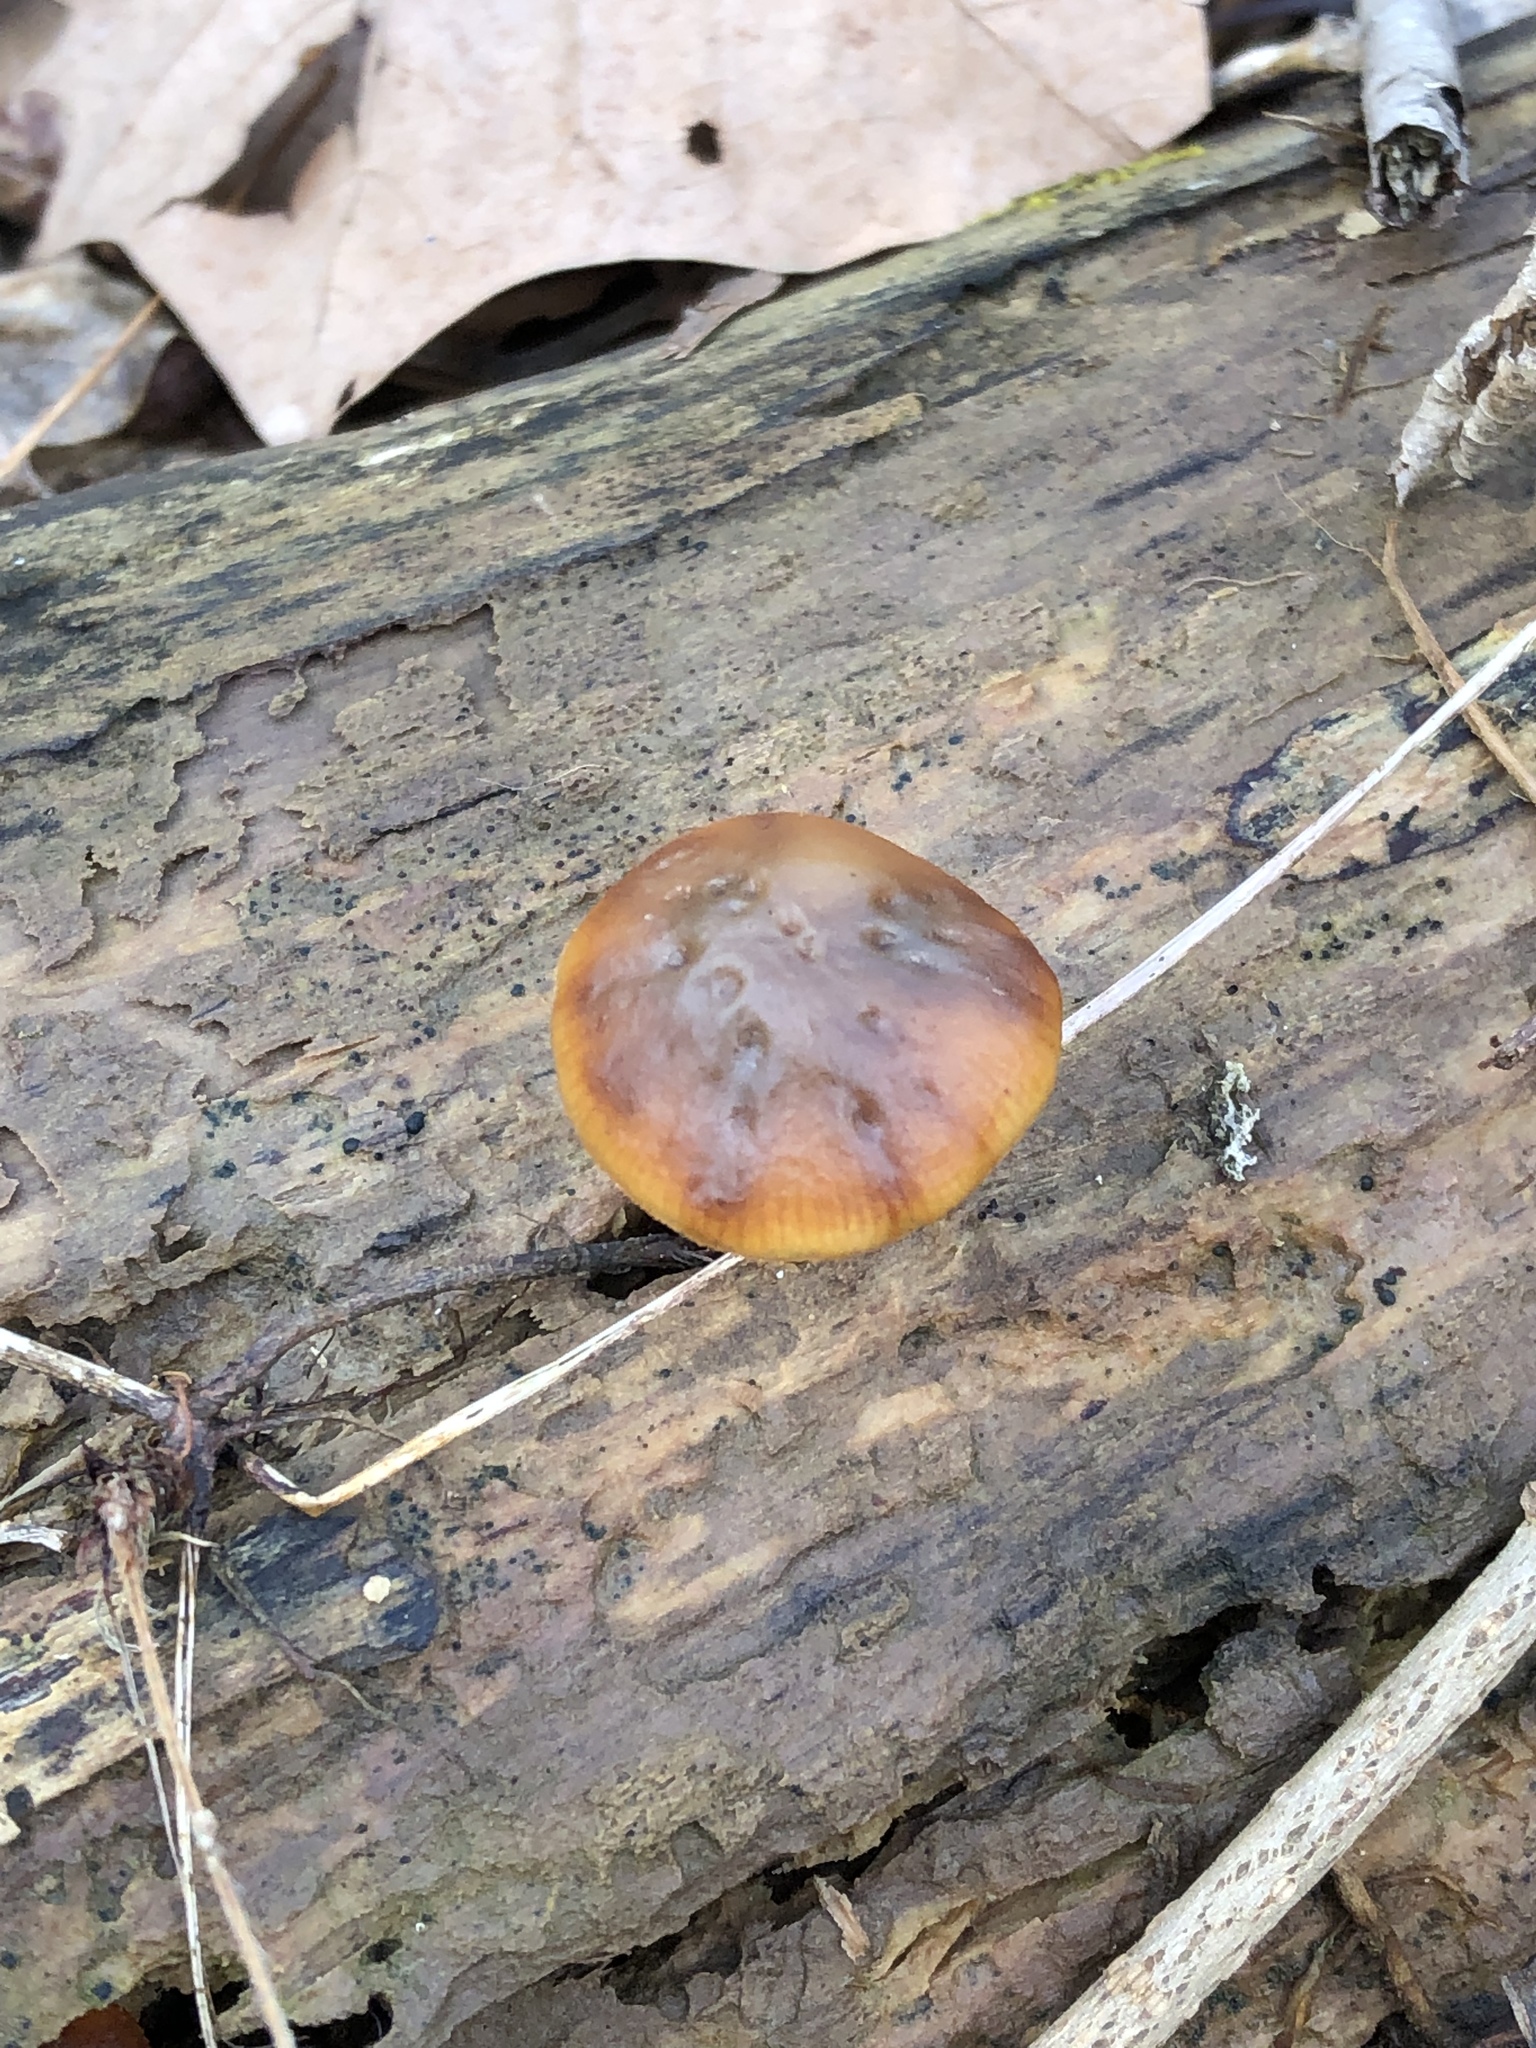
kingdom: Fungi
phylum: Basidiomycota
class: Agaricomycetes
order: Agaricales
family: Hymenogastraceae
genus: Galerina
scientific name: Galerina marginata
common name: Funeral bell
